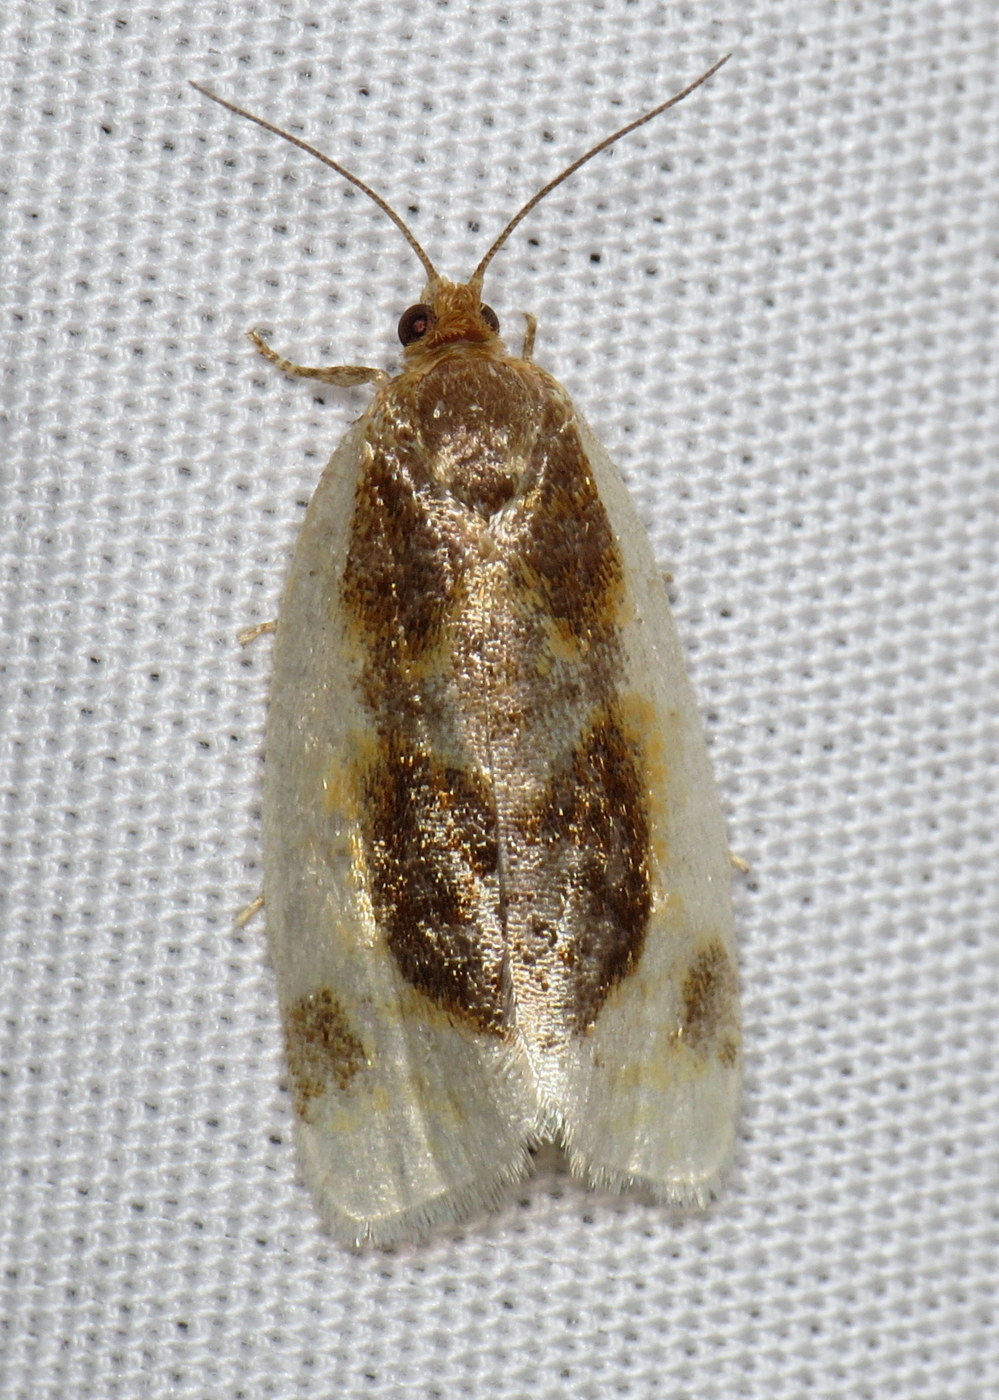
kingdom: Animalia
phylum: Arthropoda
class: Insecta
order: Lepidoptera
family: Tortricidae
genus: Clepsis
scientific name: Clepsis melaleucanus
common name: American apple tortrix
